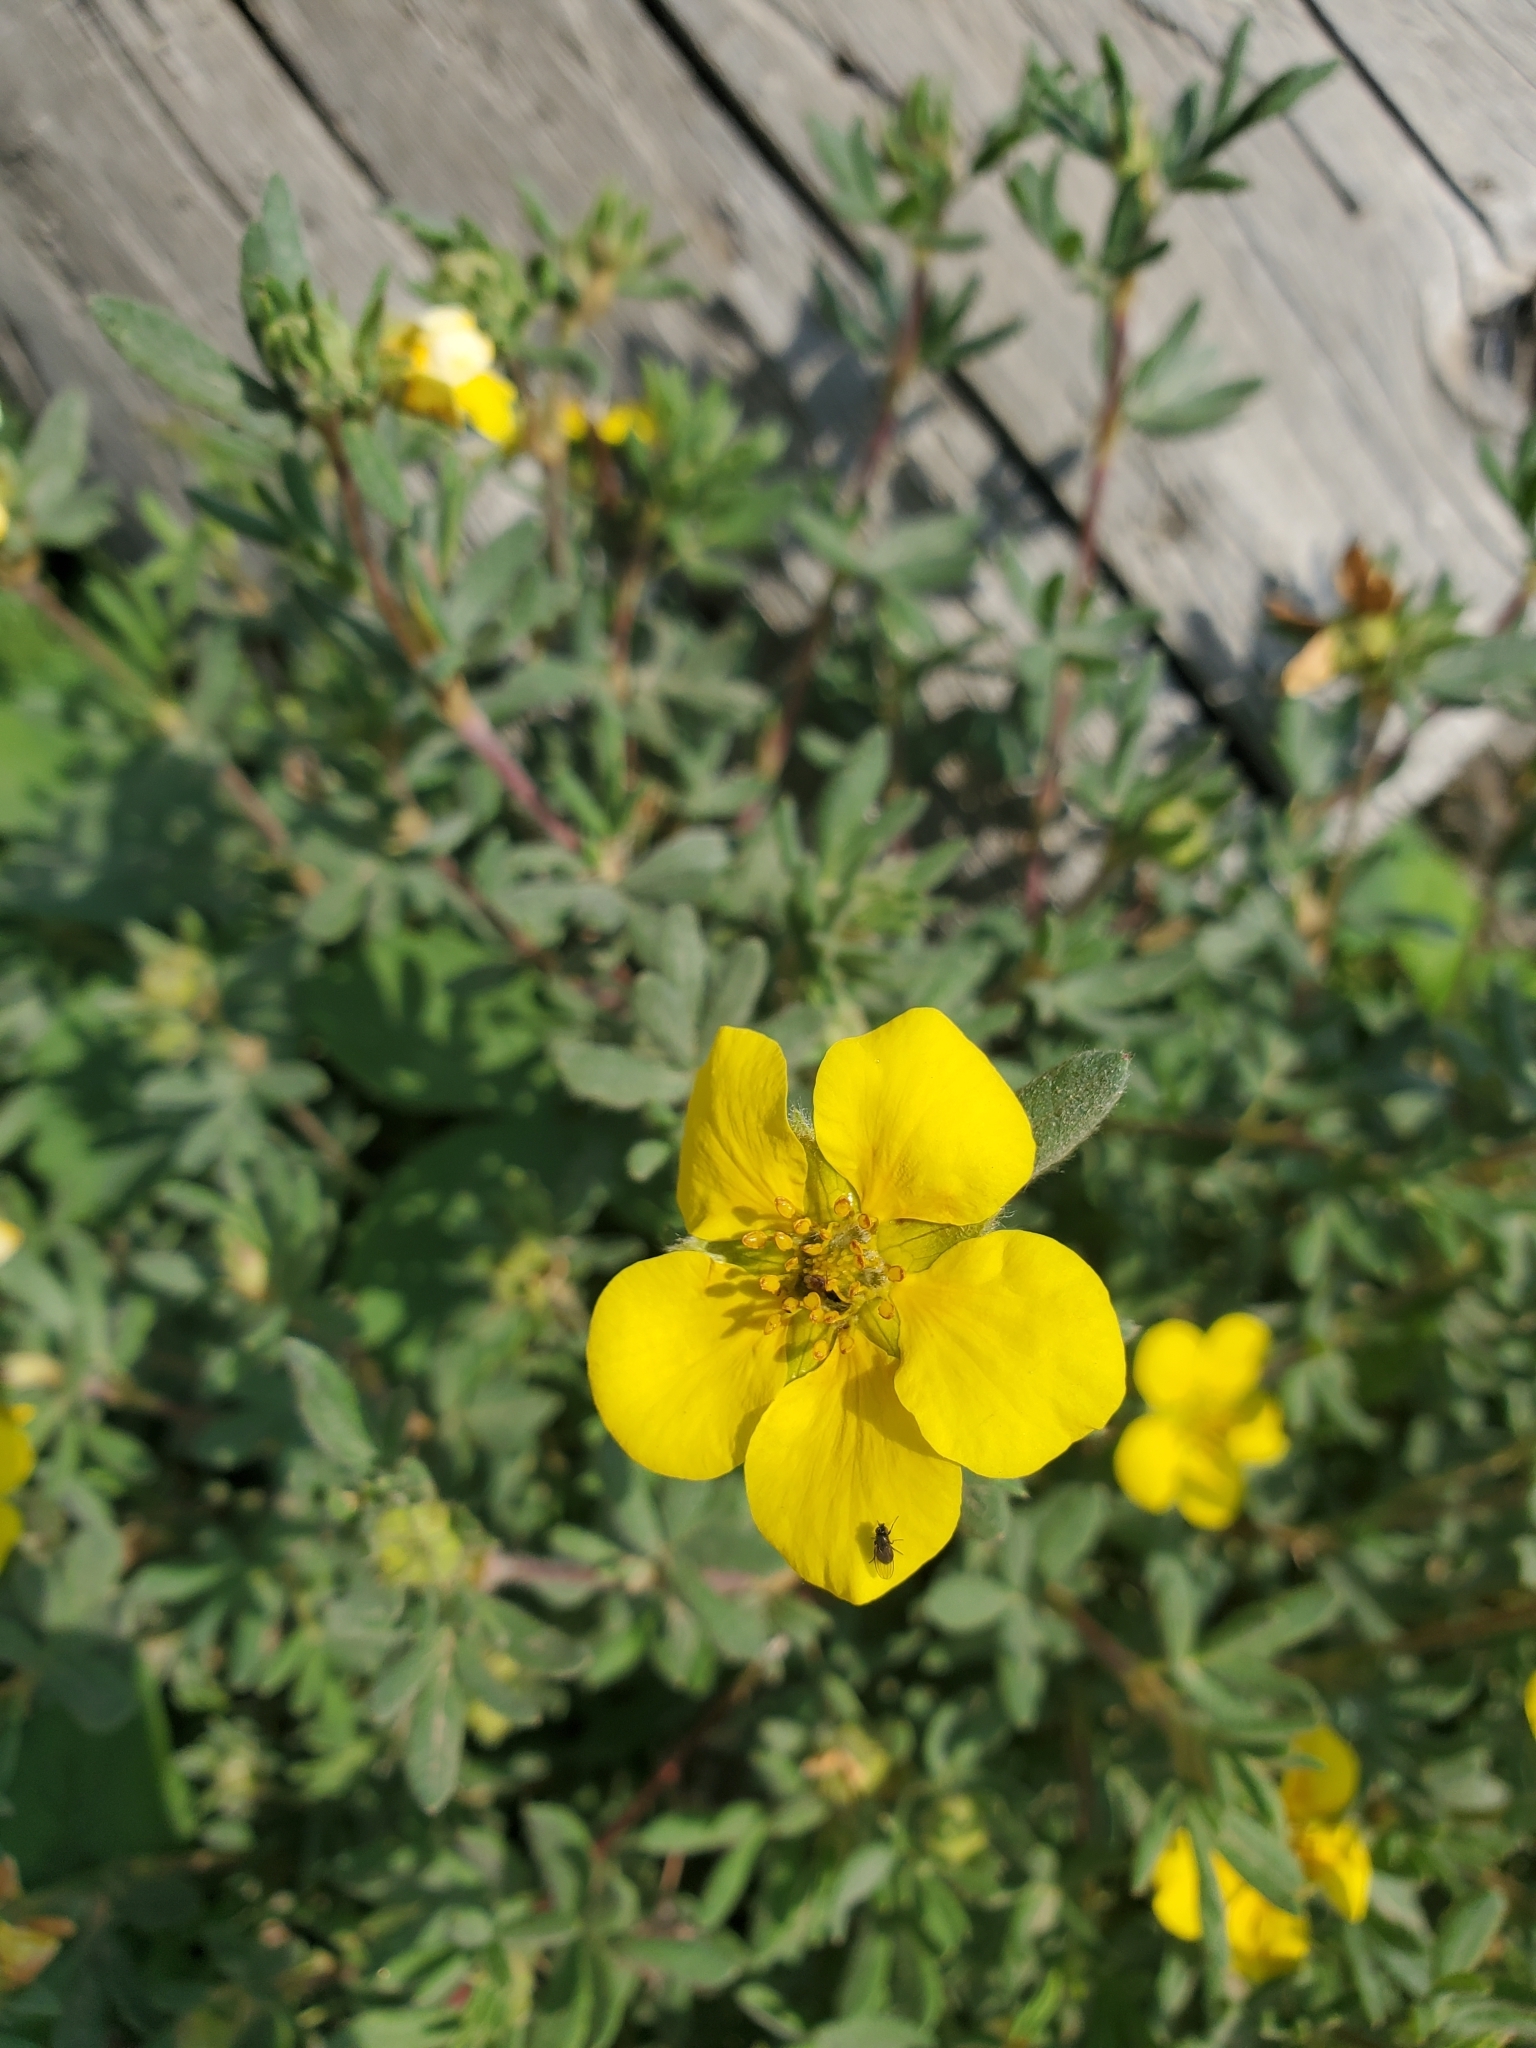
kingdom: Plantae
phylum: Tracheophyta
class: Magnoliopsida
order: Rosales
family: Rosaceae
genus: Dasiphora
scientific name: Dasiphora fruticosa
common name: Shrubby cinquefoil
